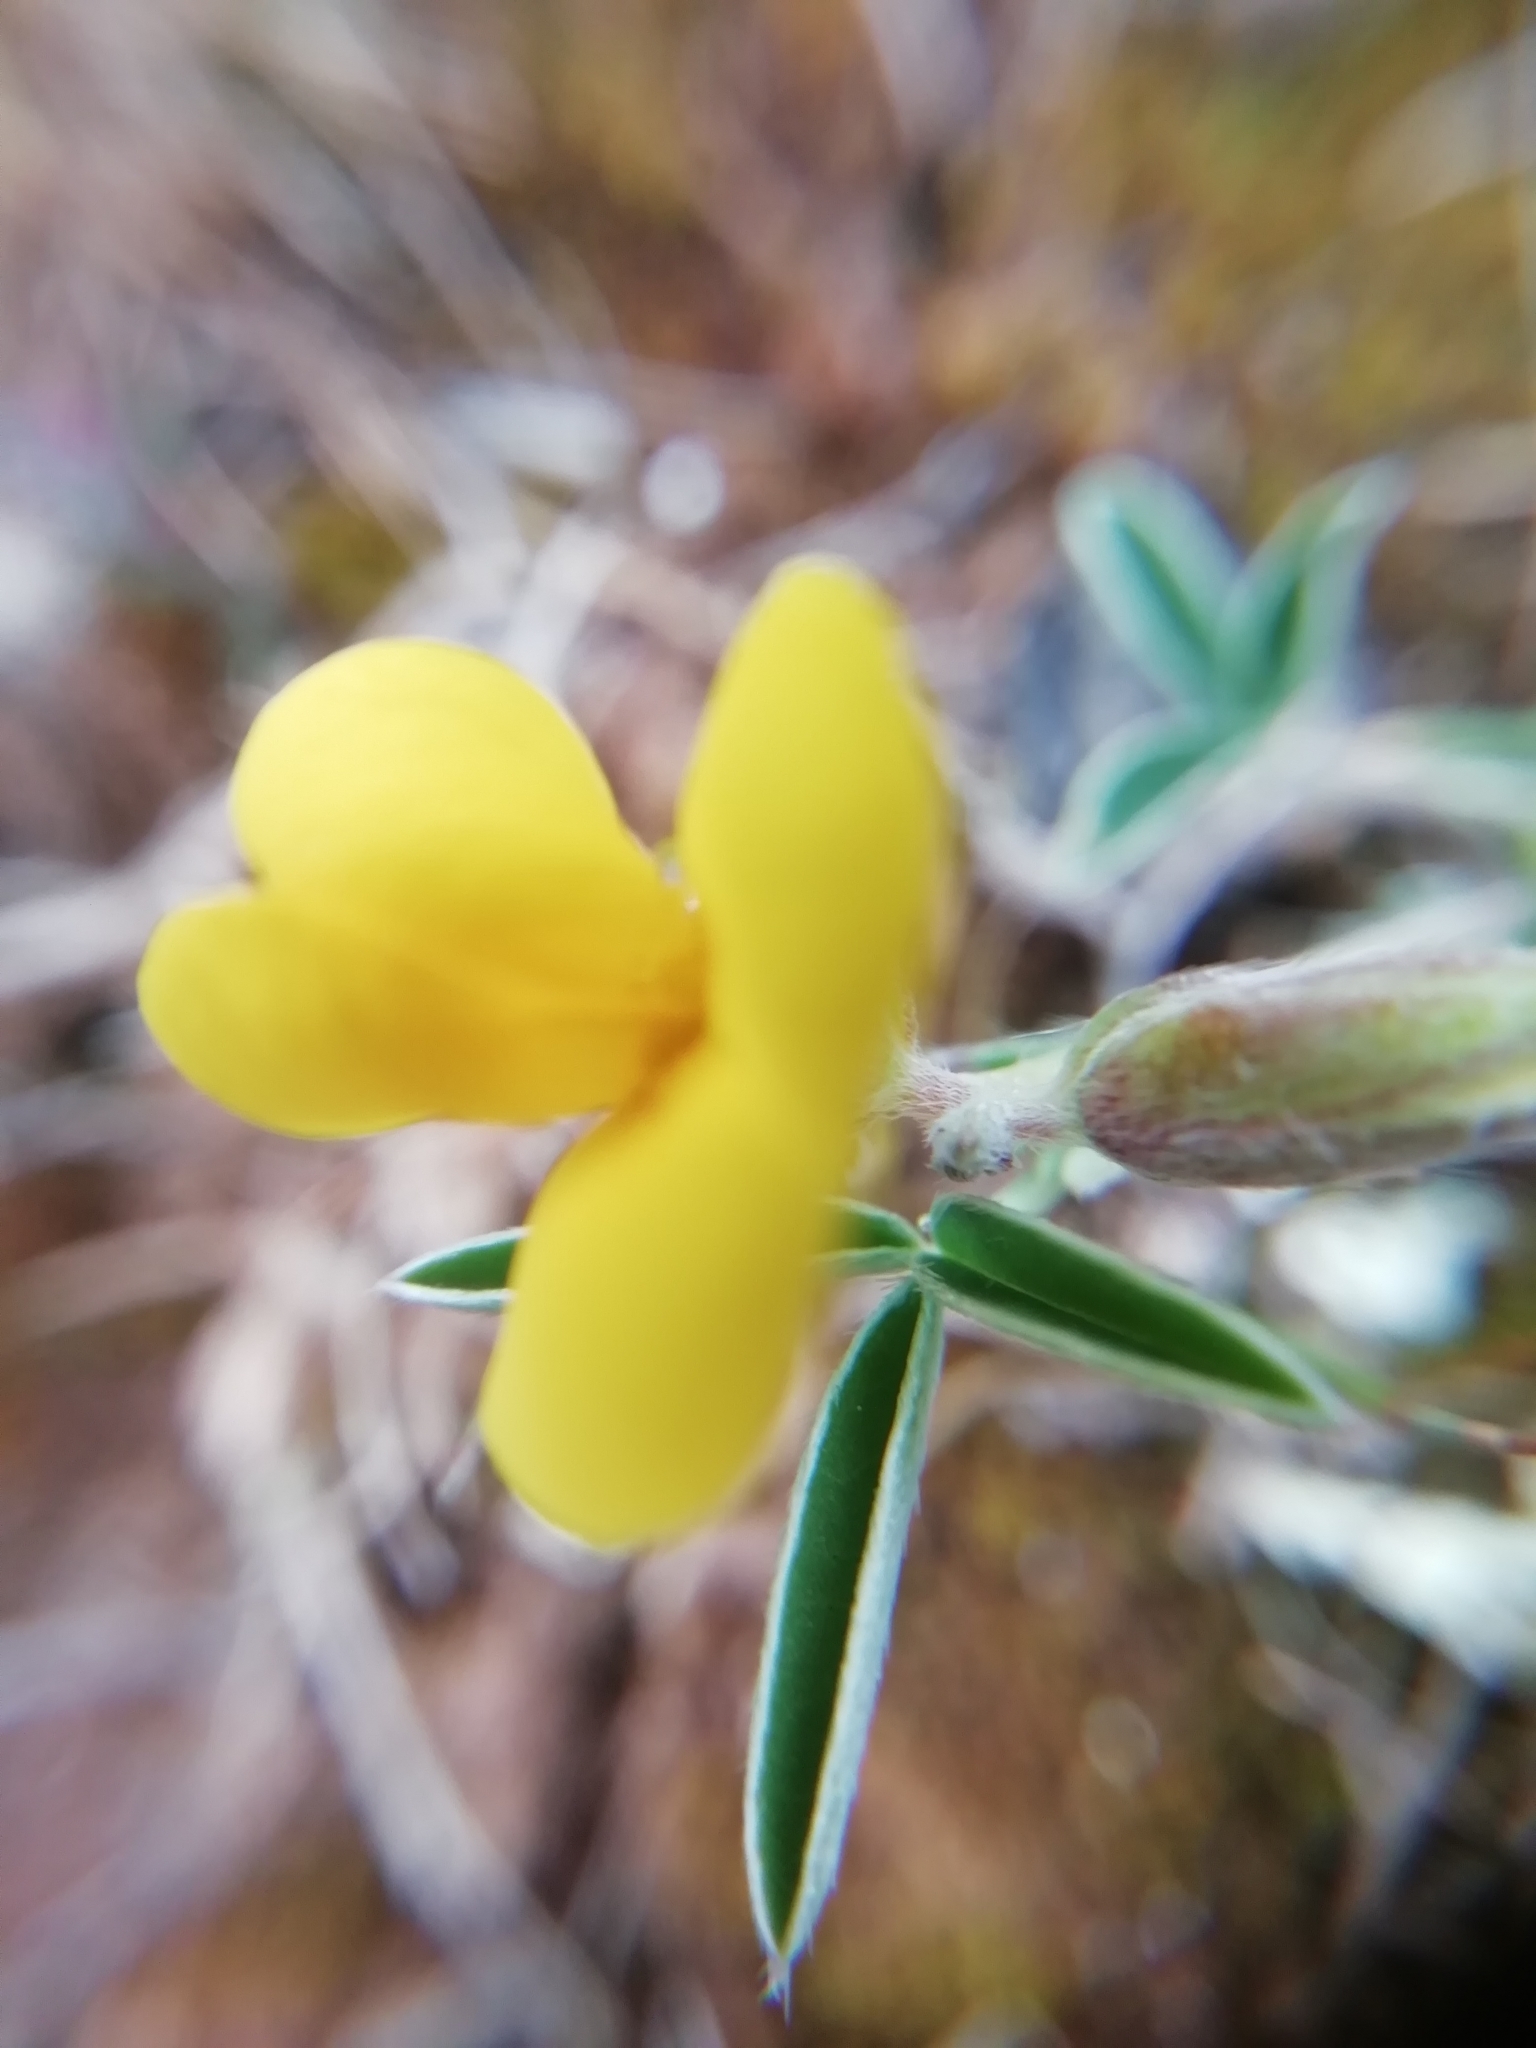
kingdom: Plantae
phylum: Tracheophyta
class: Magnoliopsida
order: Fabales
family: Fabaceae
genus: Argyrolobium
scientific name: Argyrolobium zanonii
